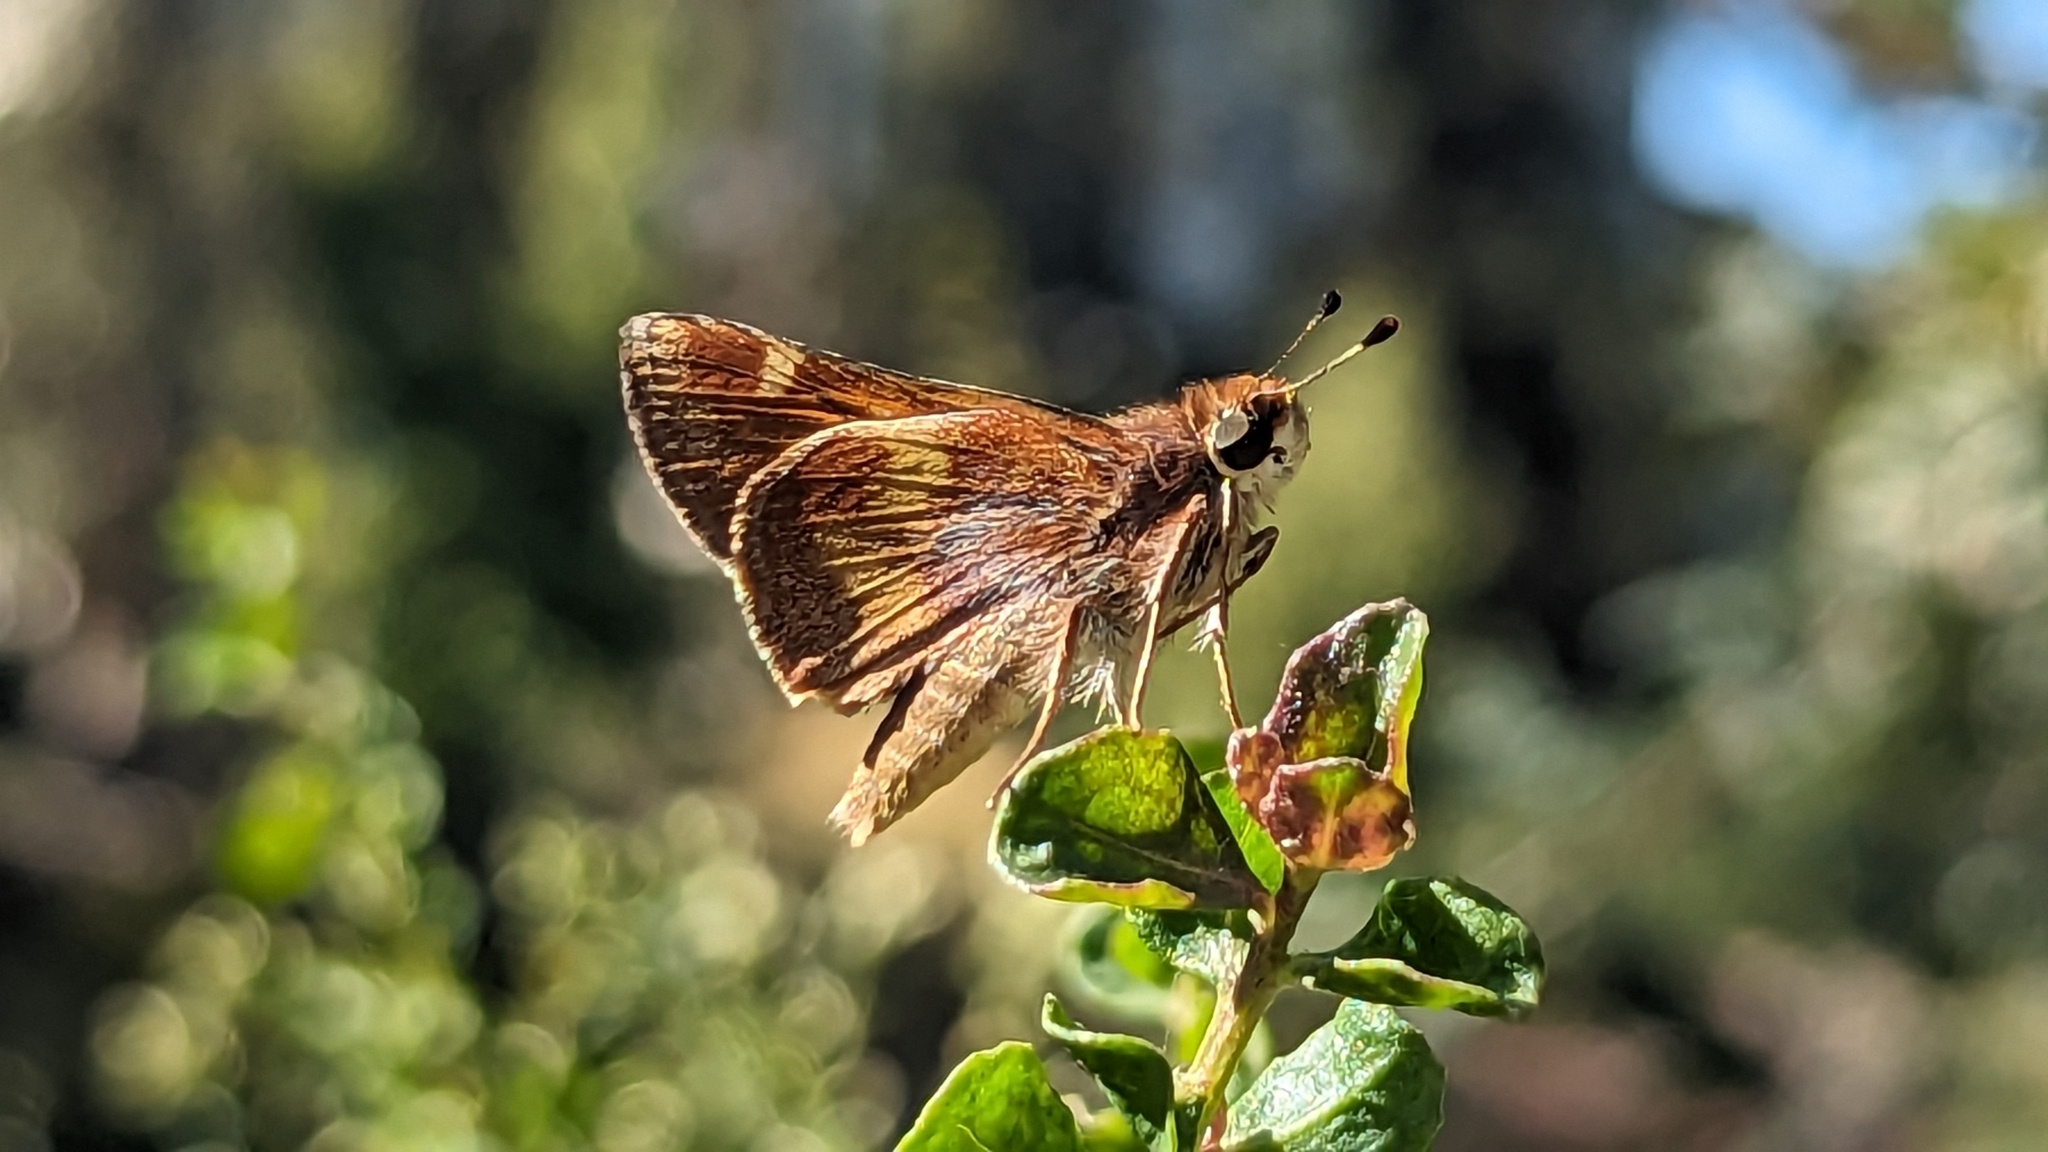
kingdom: Animalia
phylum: Arthropoda
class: Insecta
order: Lepidoptera
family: Hesperiidae
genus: Lon
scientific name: Lon melane
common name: Umber skipper
